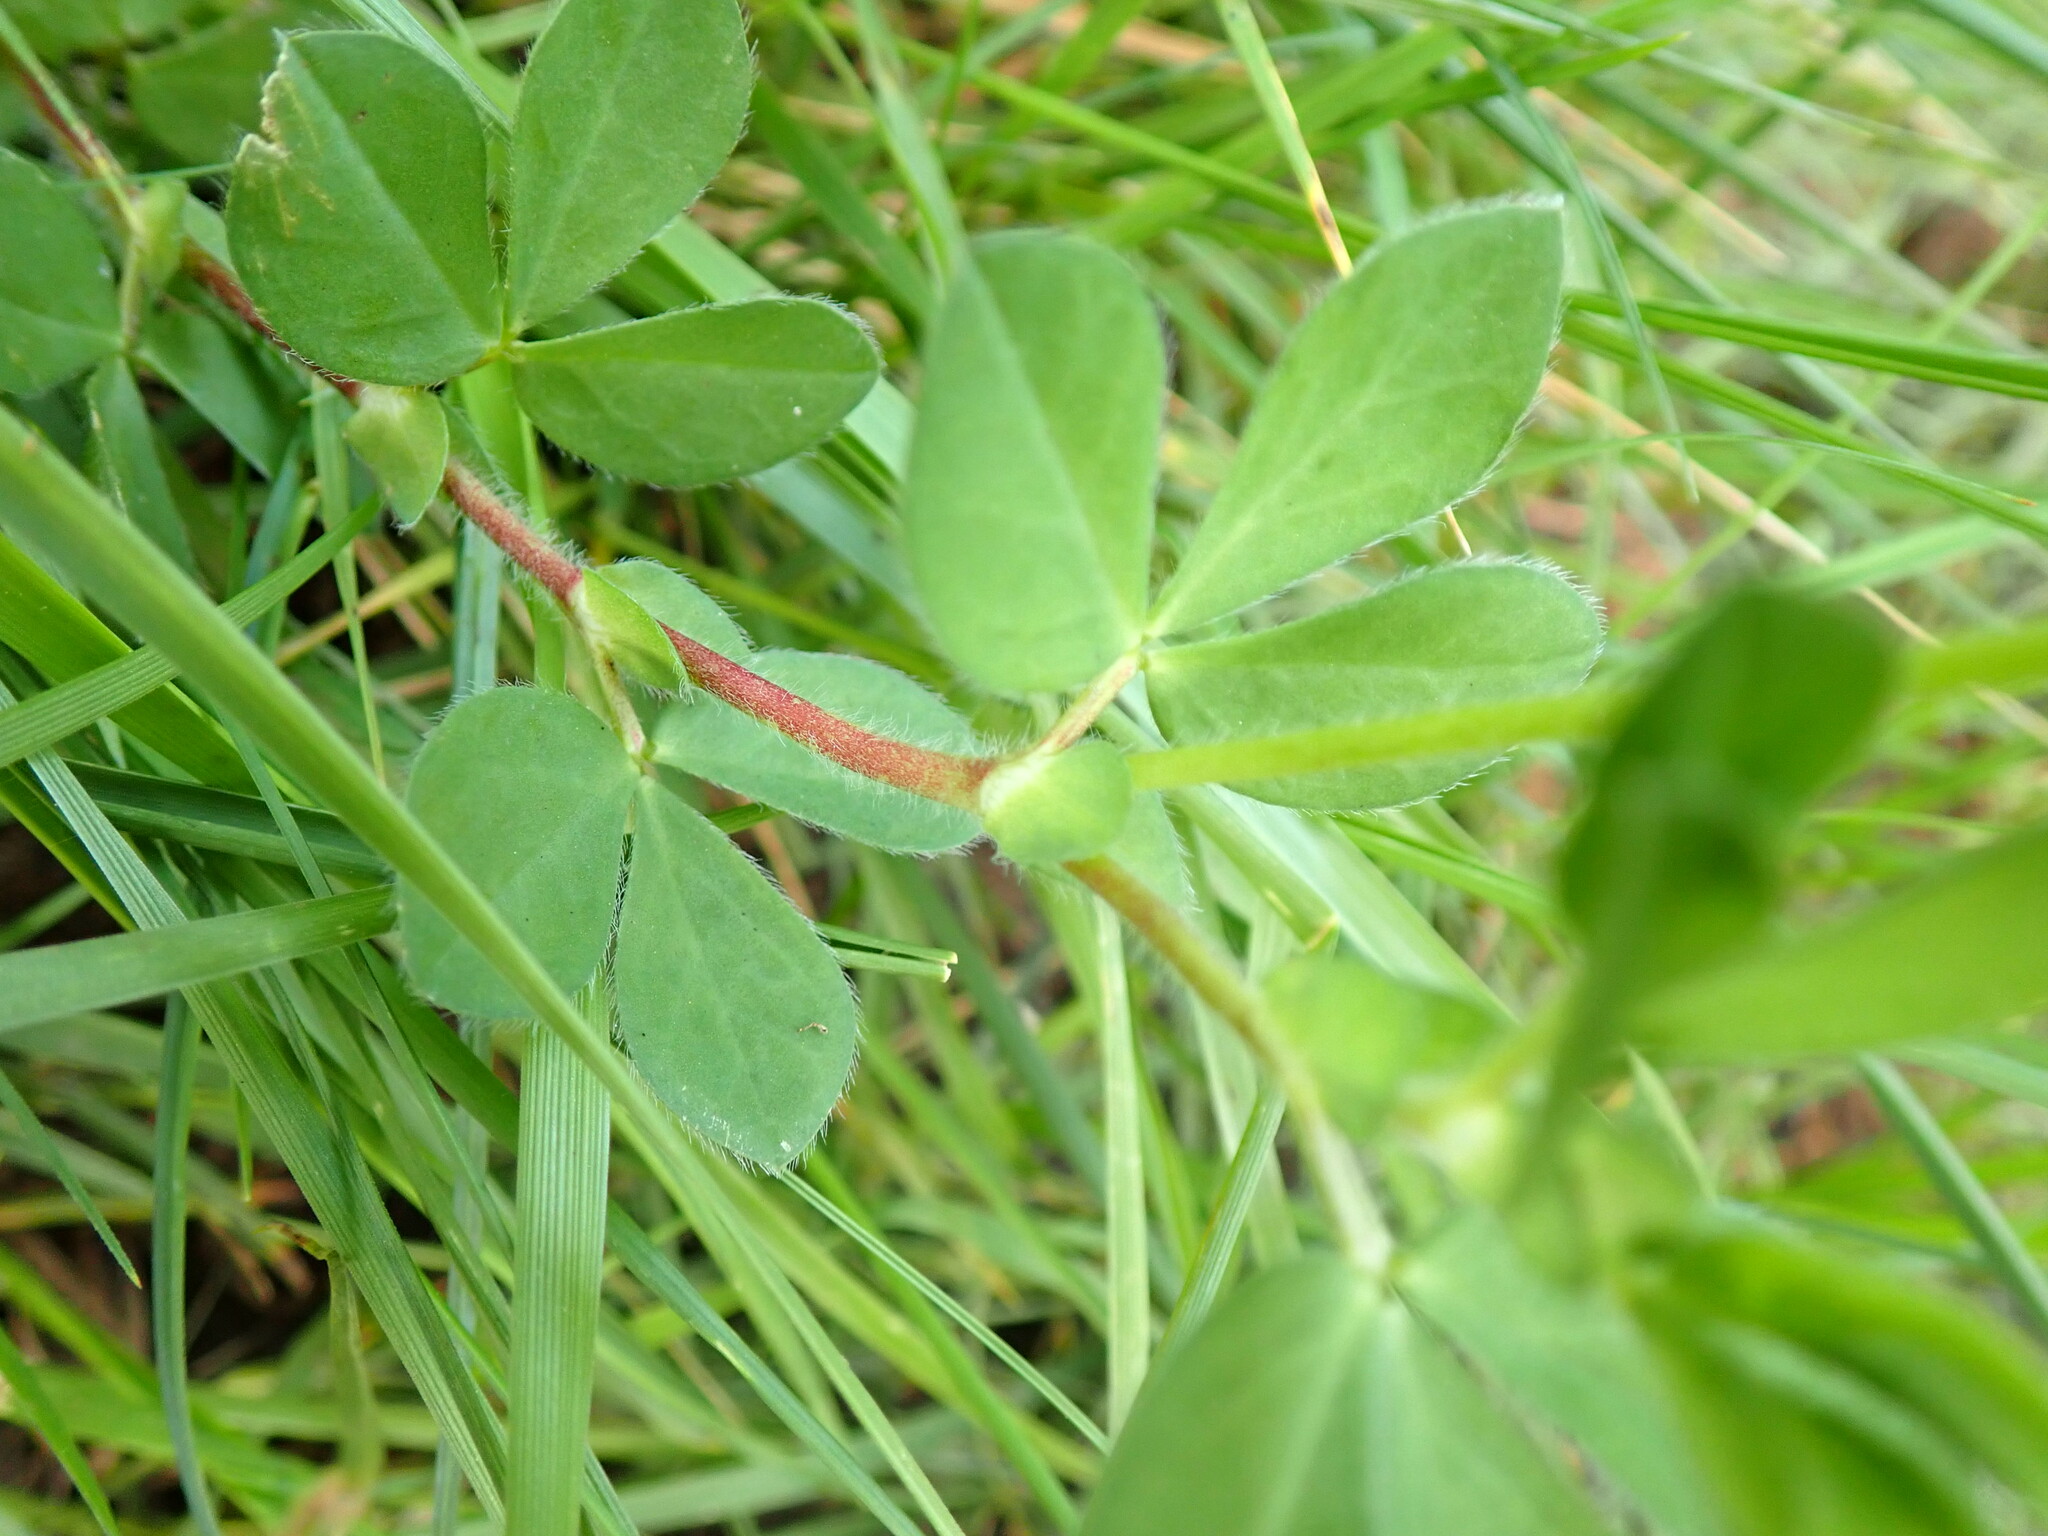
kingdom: Plantae
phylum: Tracheophyta
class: Magnoliopsida
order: Fabales
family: Fabaceae
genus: Lotus
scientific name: Lotus maritimus
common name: Dragon's-teeth
